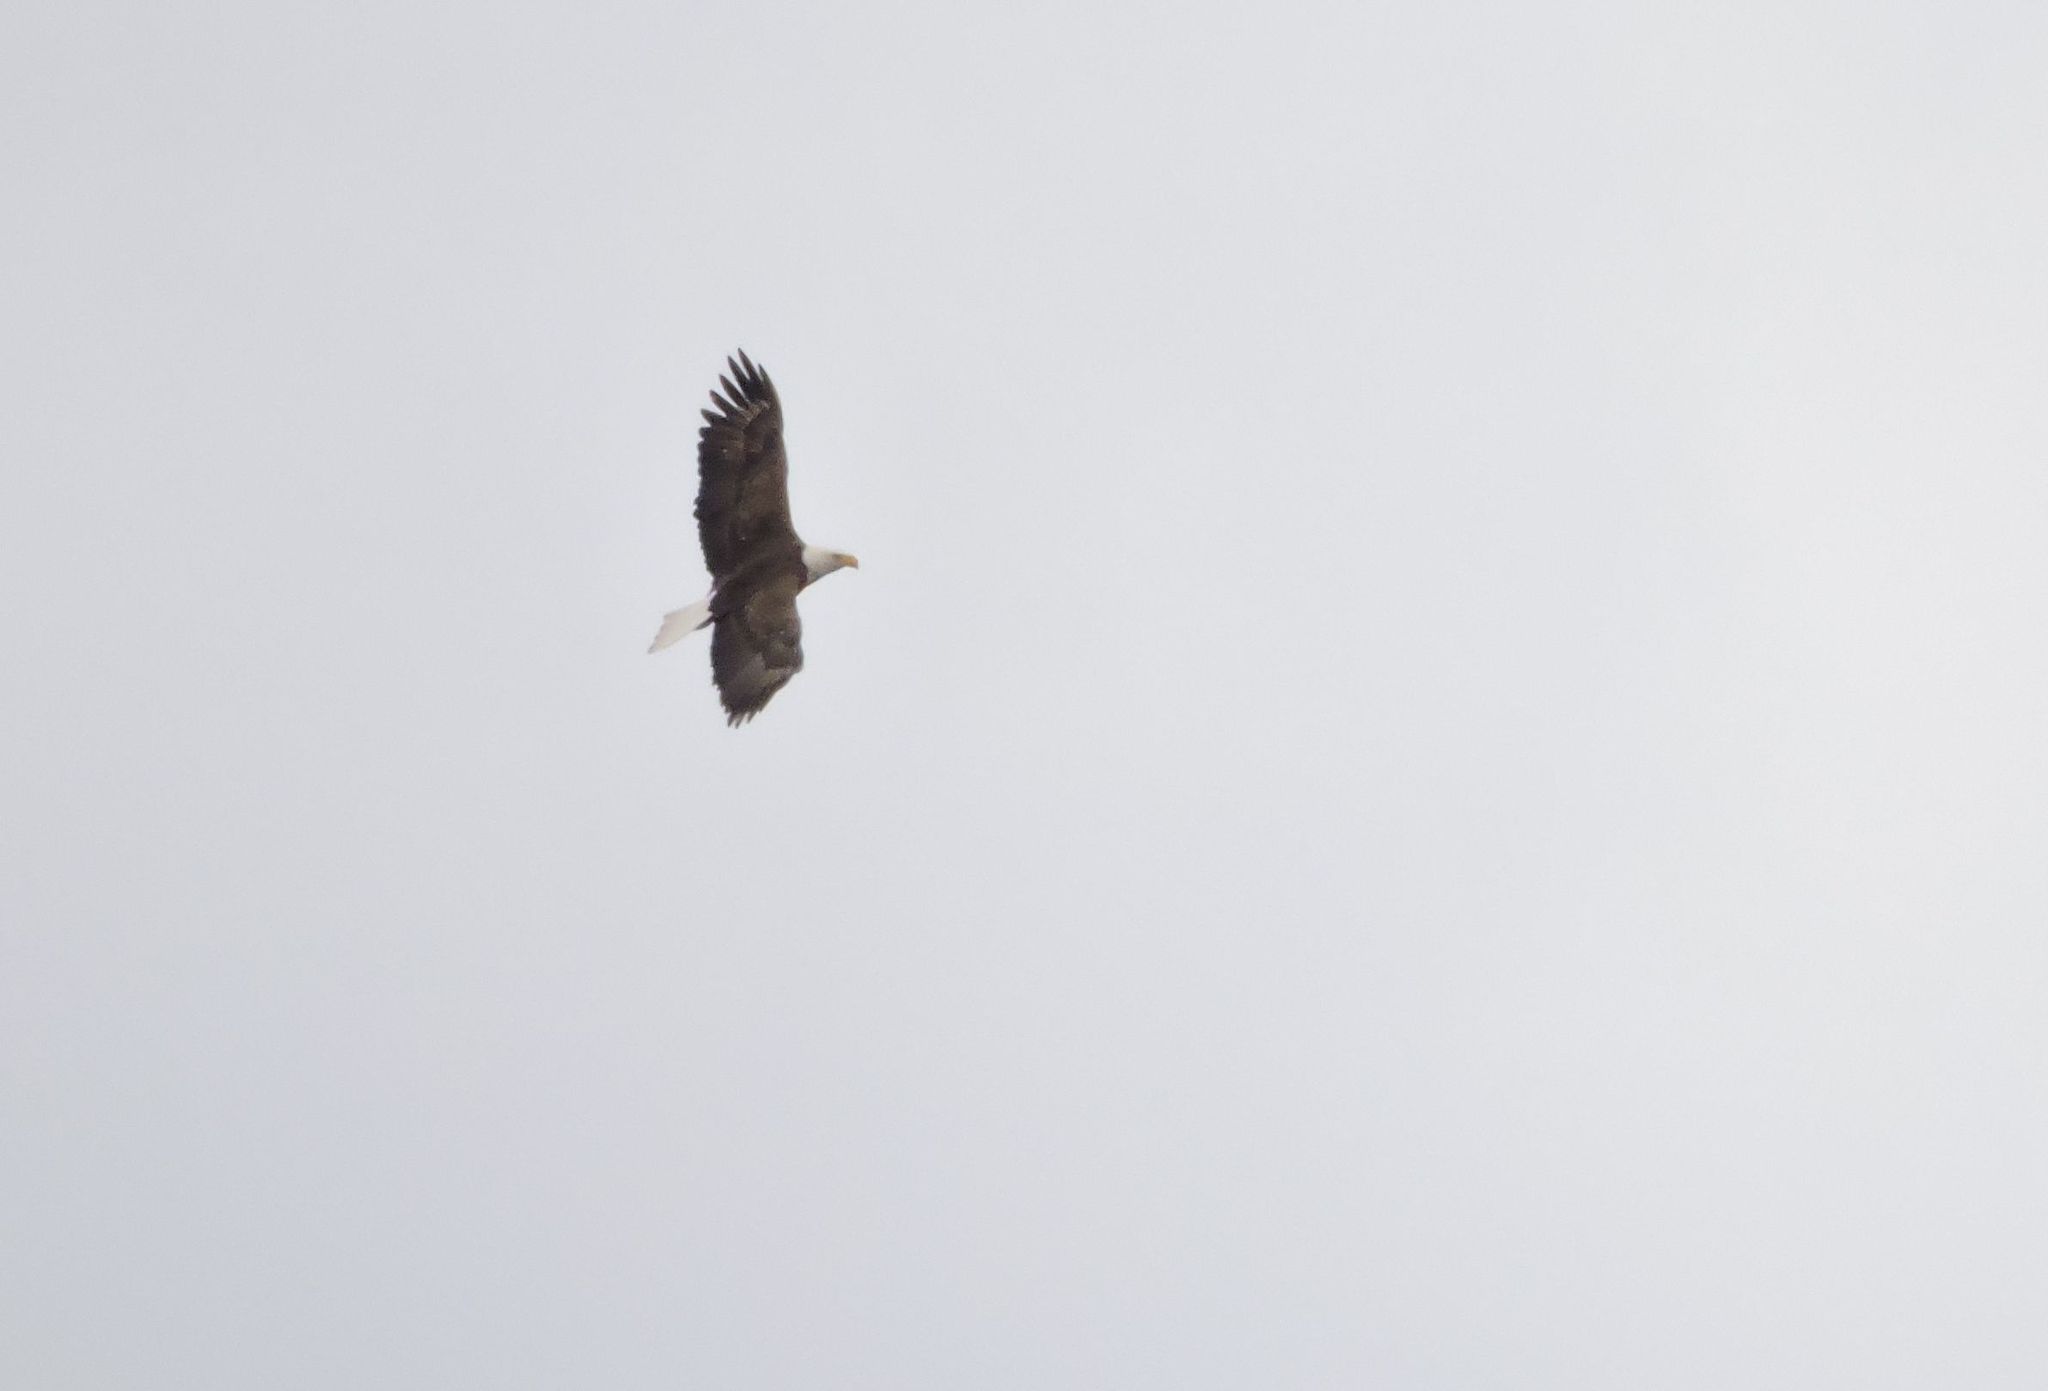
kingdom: Animalia
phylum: Chordata
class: Aves
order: Accipitriformes
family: Accipitridae
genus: Haliaeetus
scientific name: Haliaeetus leucocephalus
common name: Bald eagle
